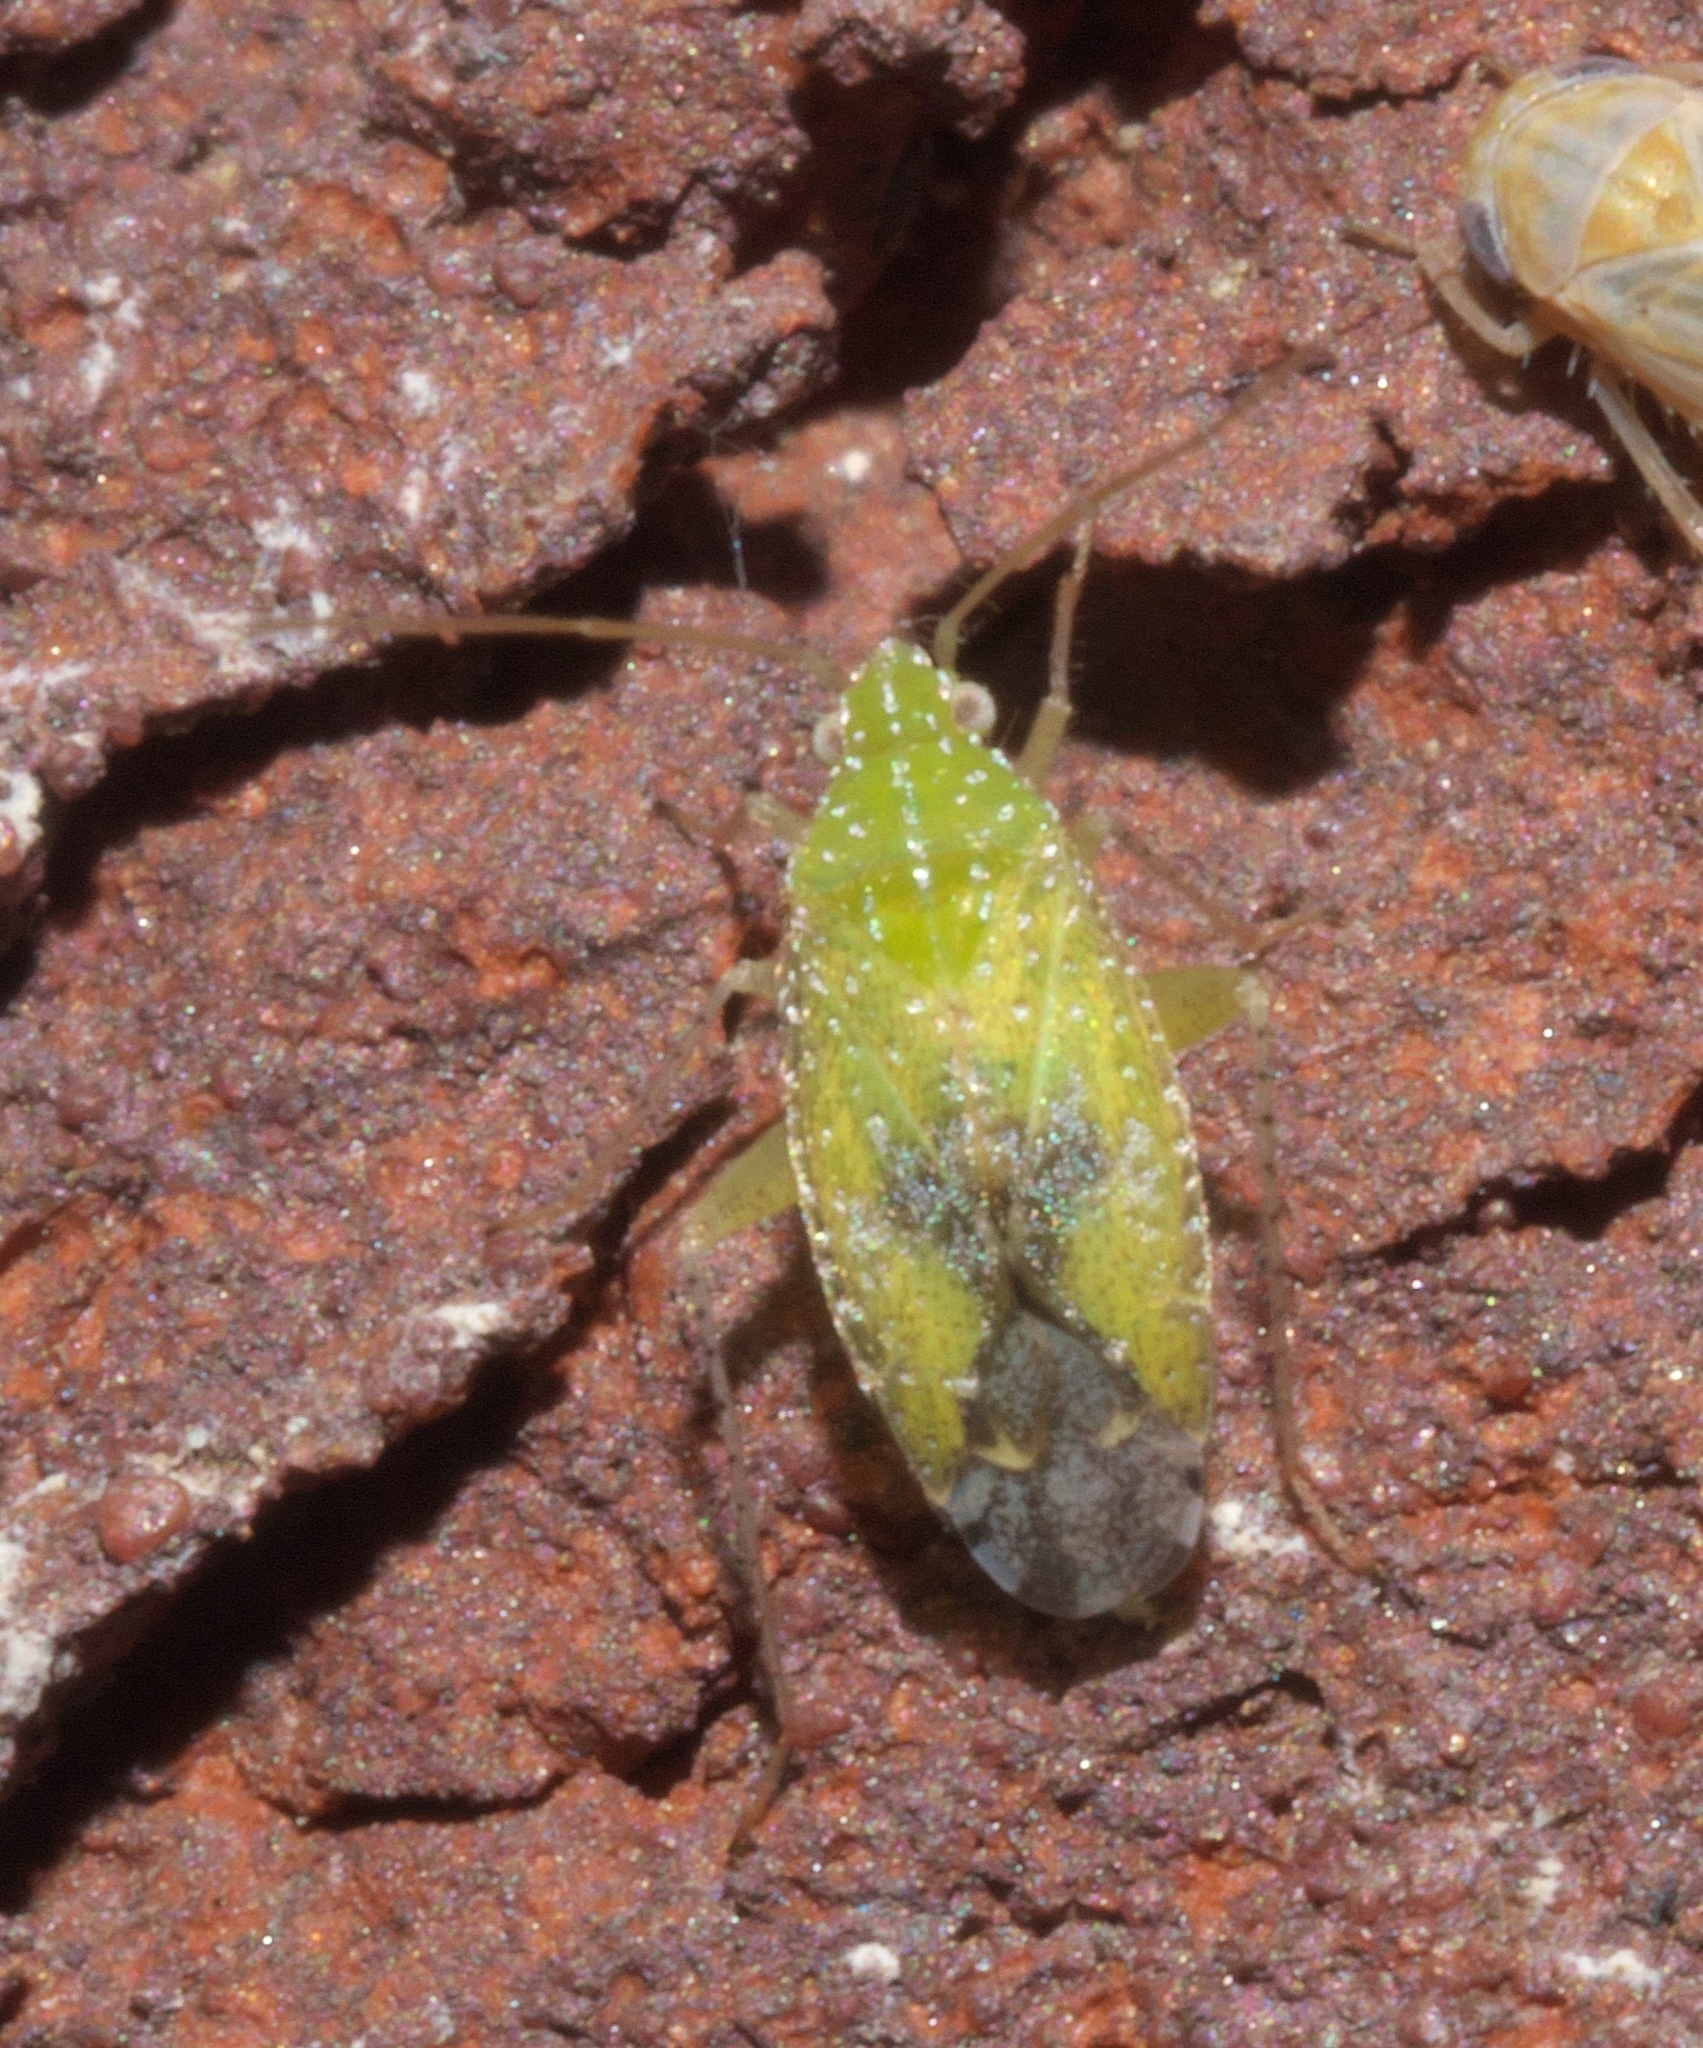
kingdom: Animalia
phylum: Arthropoda
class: Insecta
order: Hemiptera
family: Miridae
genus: Keltonia
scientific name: Keltonia tuckeri
